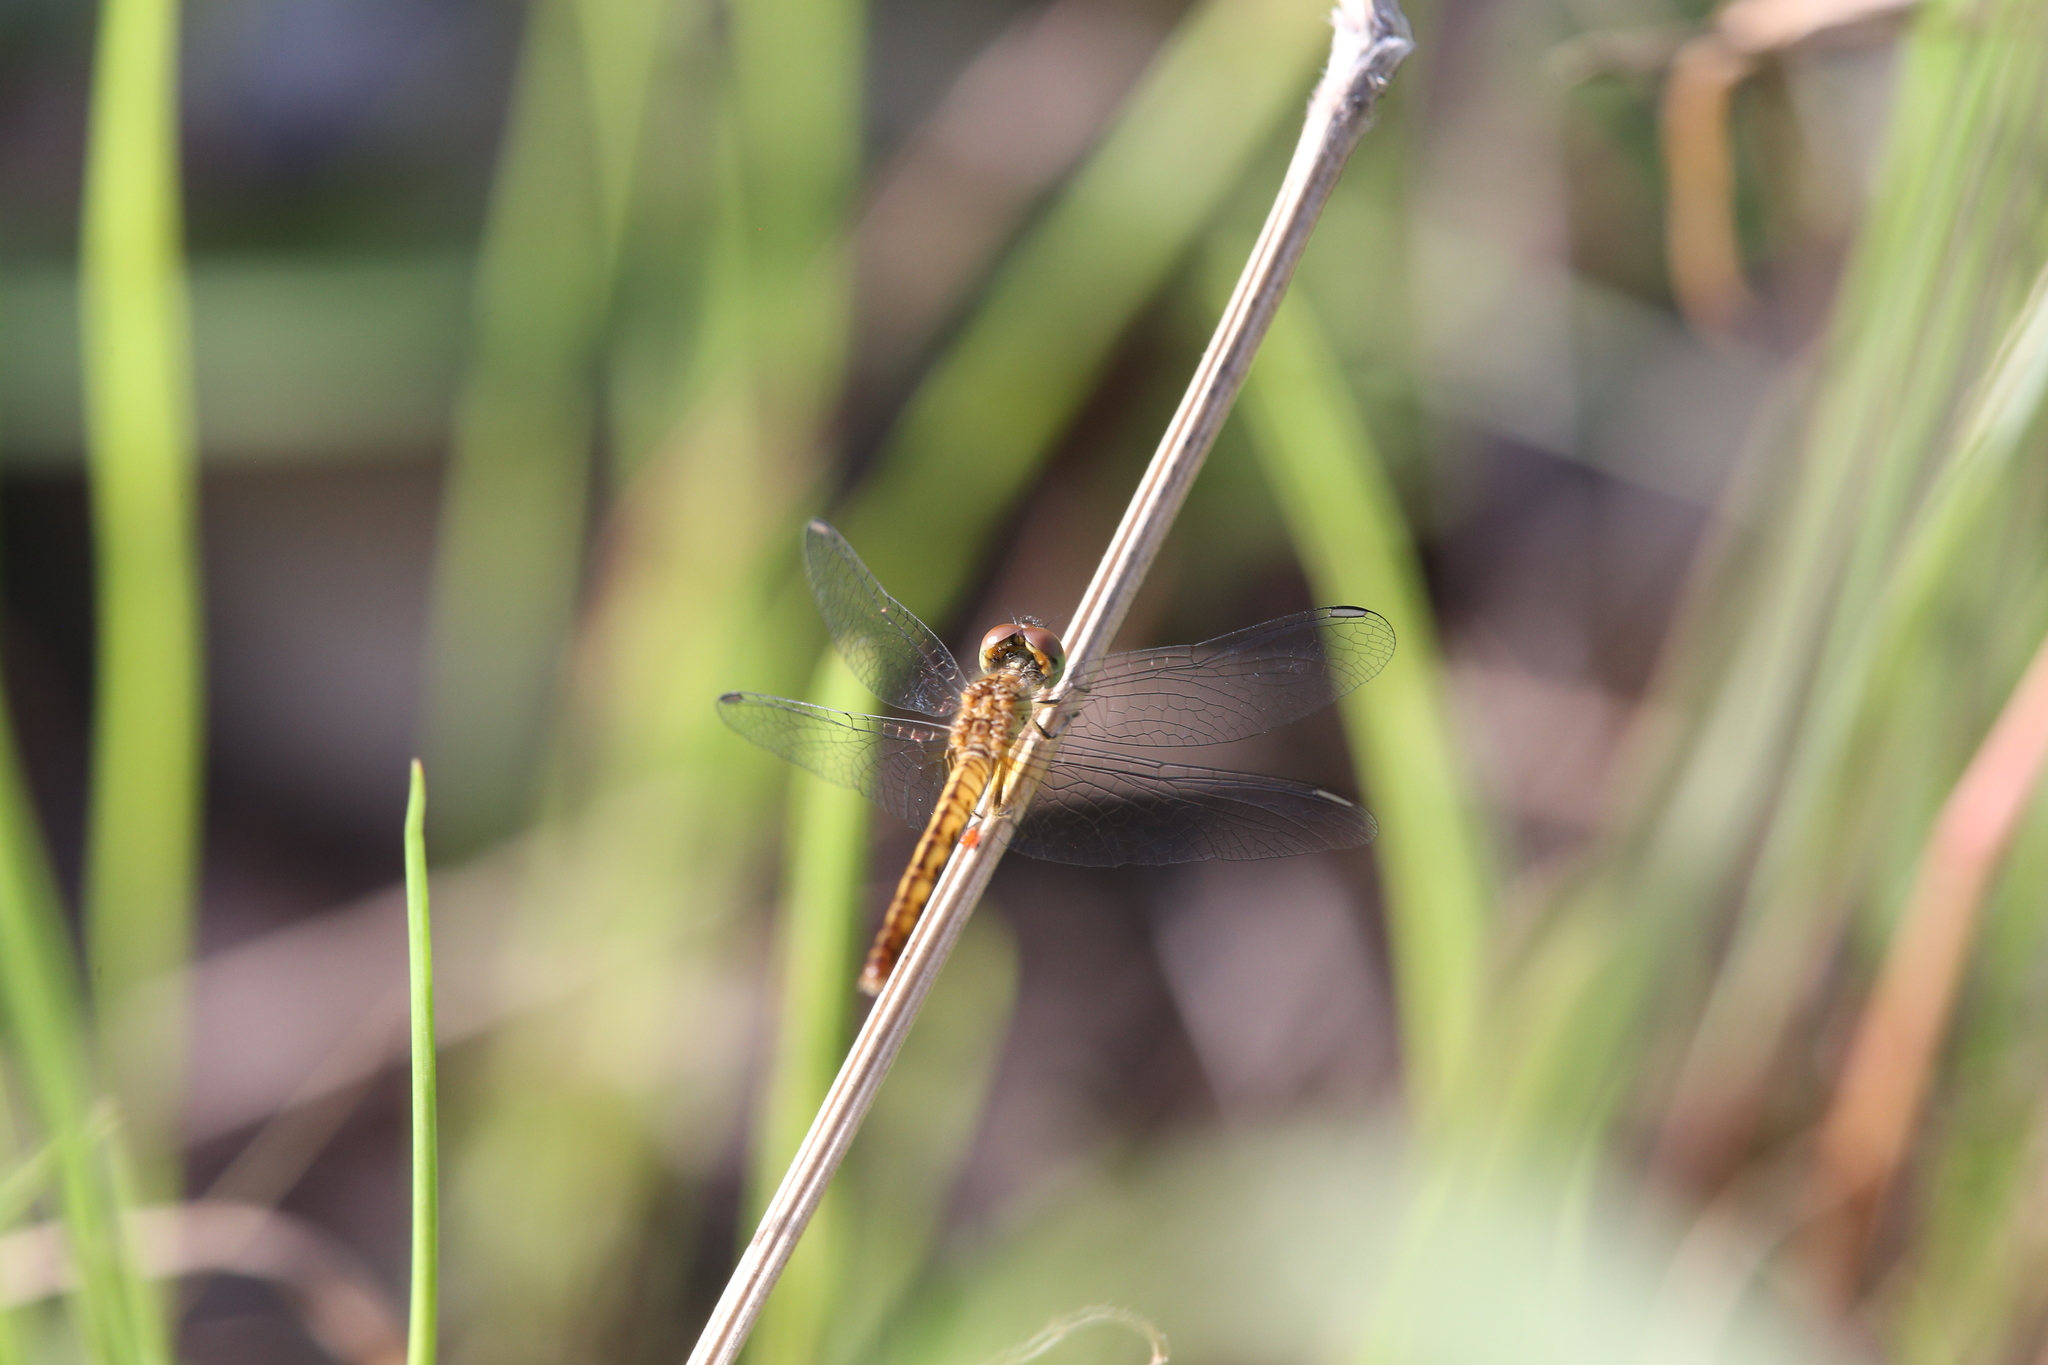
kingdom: Animalia
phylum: Arthropoda
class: Insecta
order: Odonata
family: Libellulidae
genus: Nannodiplax
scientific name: Nannodiplax rubra
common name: Pygmy percher
